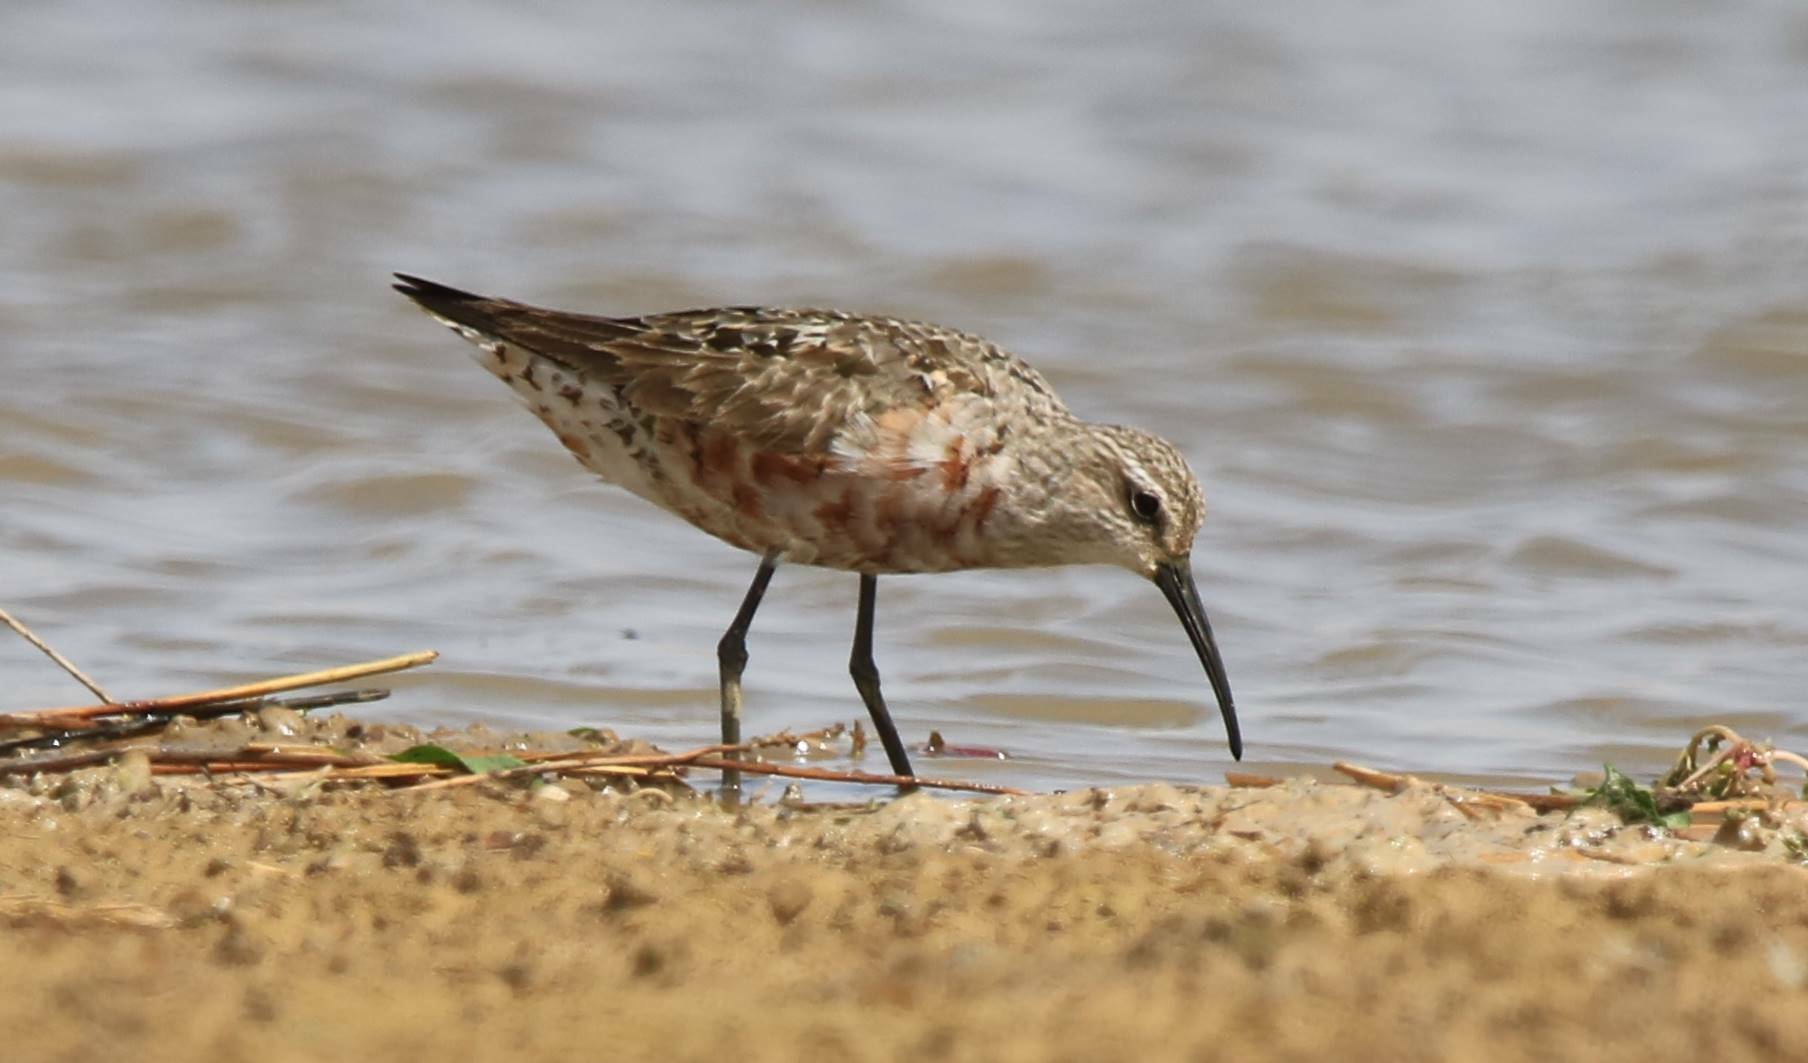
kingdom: Animalia
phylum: Chordata
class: Aves
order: Charadriiformes
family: Scolopacidae
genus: Calidris
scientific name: Calidris ferruginea
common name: Curlew sandpiper
